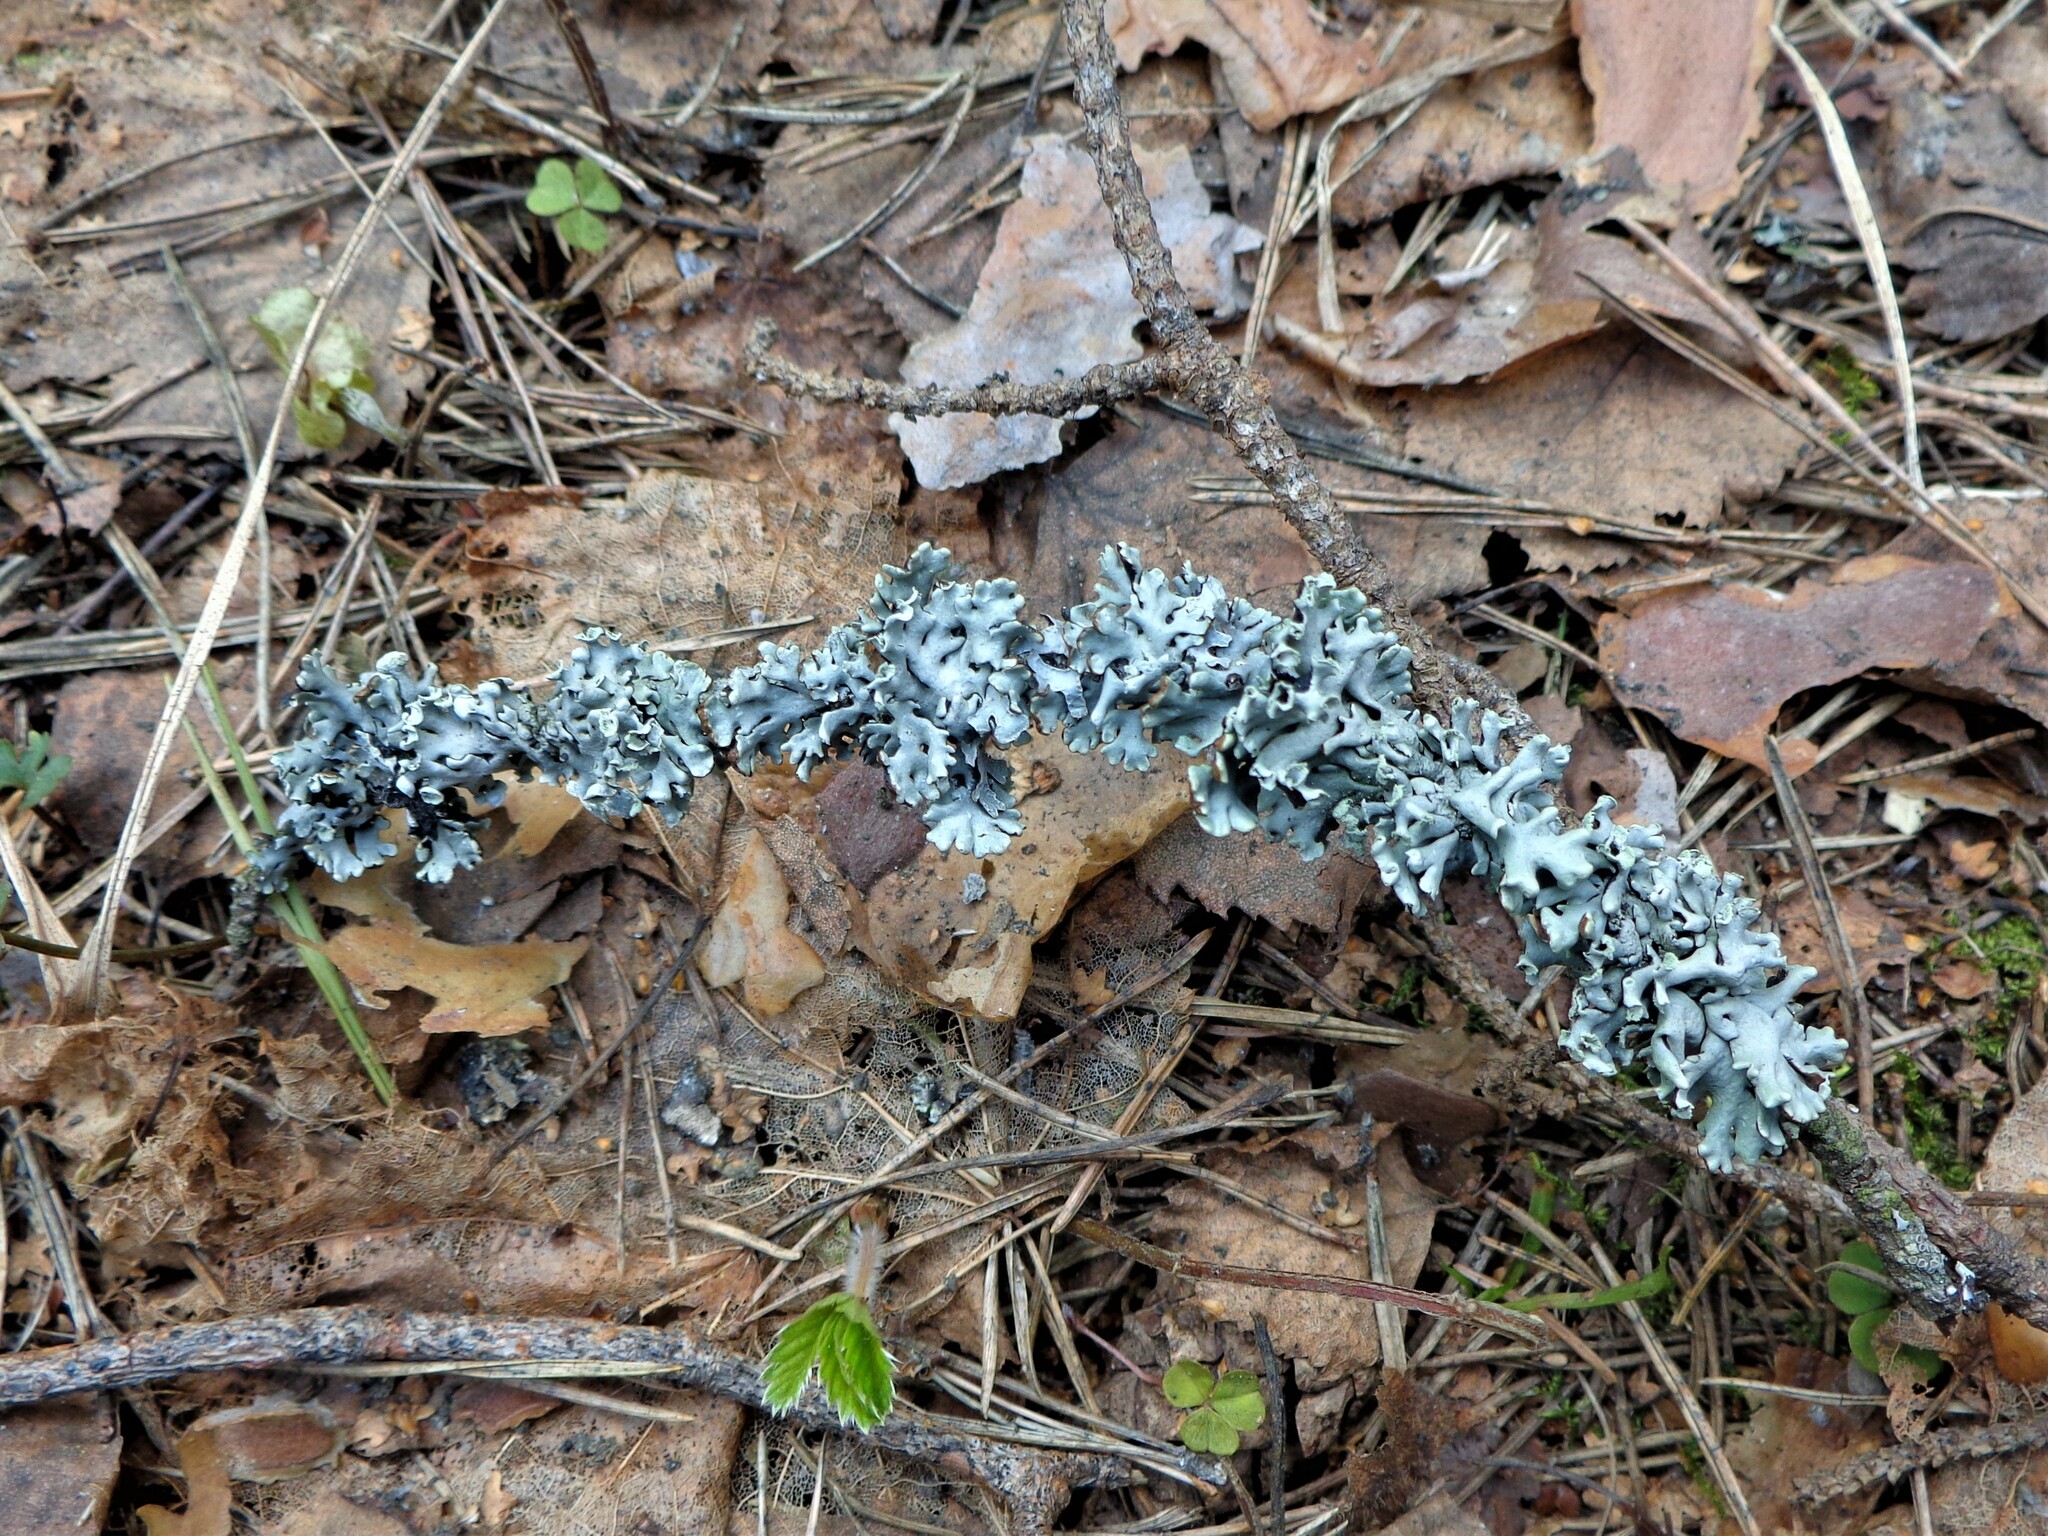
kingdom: Fungi
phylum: Ascomycota
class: Lecanoromycetes
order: Lecanorales
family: Parmeliaceae
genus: Hypogymnia
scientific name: Hypogymnia physodes
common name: Dark crottle
